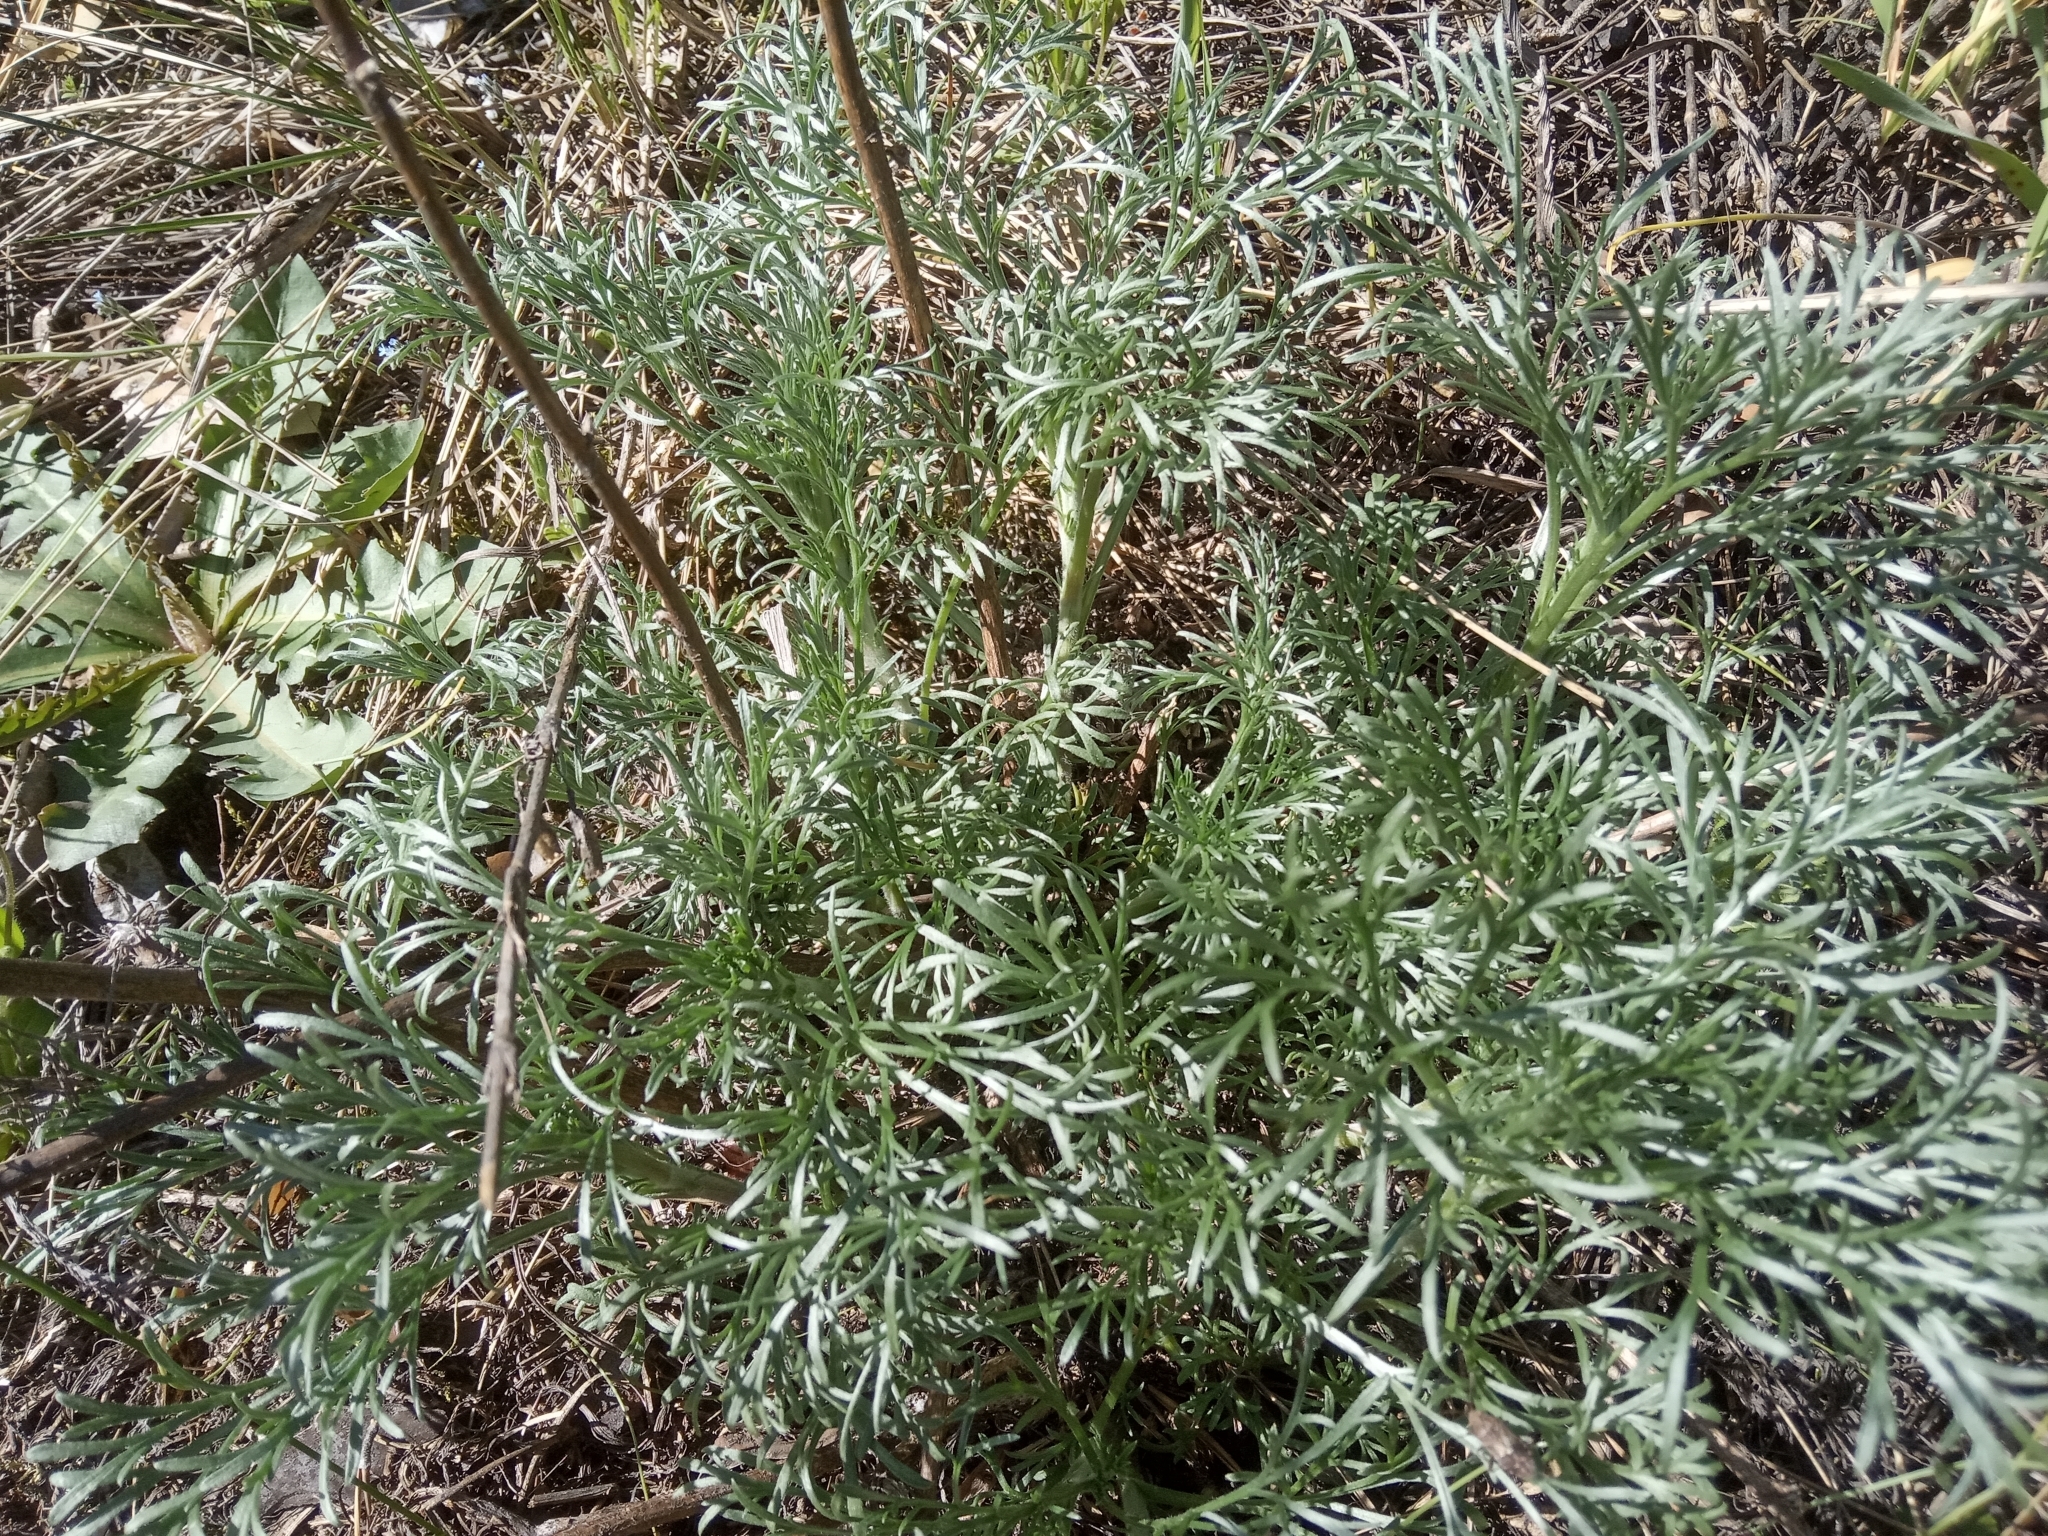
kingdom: Plantae
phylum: Tracheophyta
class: Magnoliopsida
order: Asterales
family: Asteraceae
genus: Artemisia
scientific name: Artemisia campestris
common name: Field wormwood
